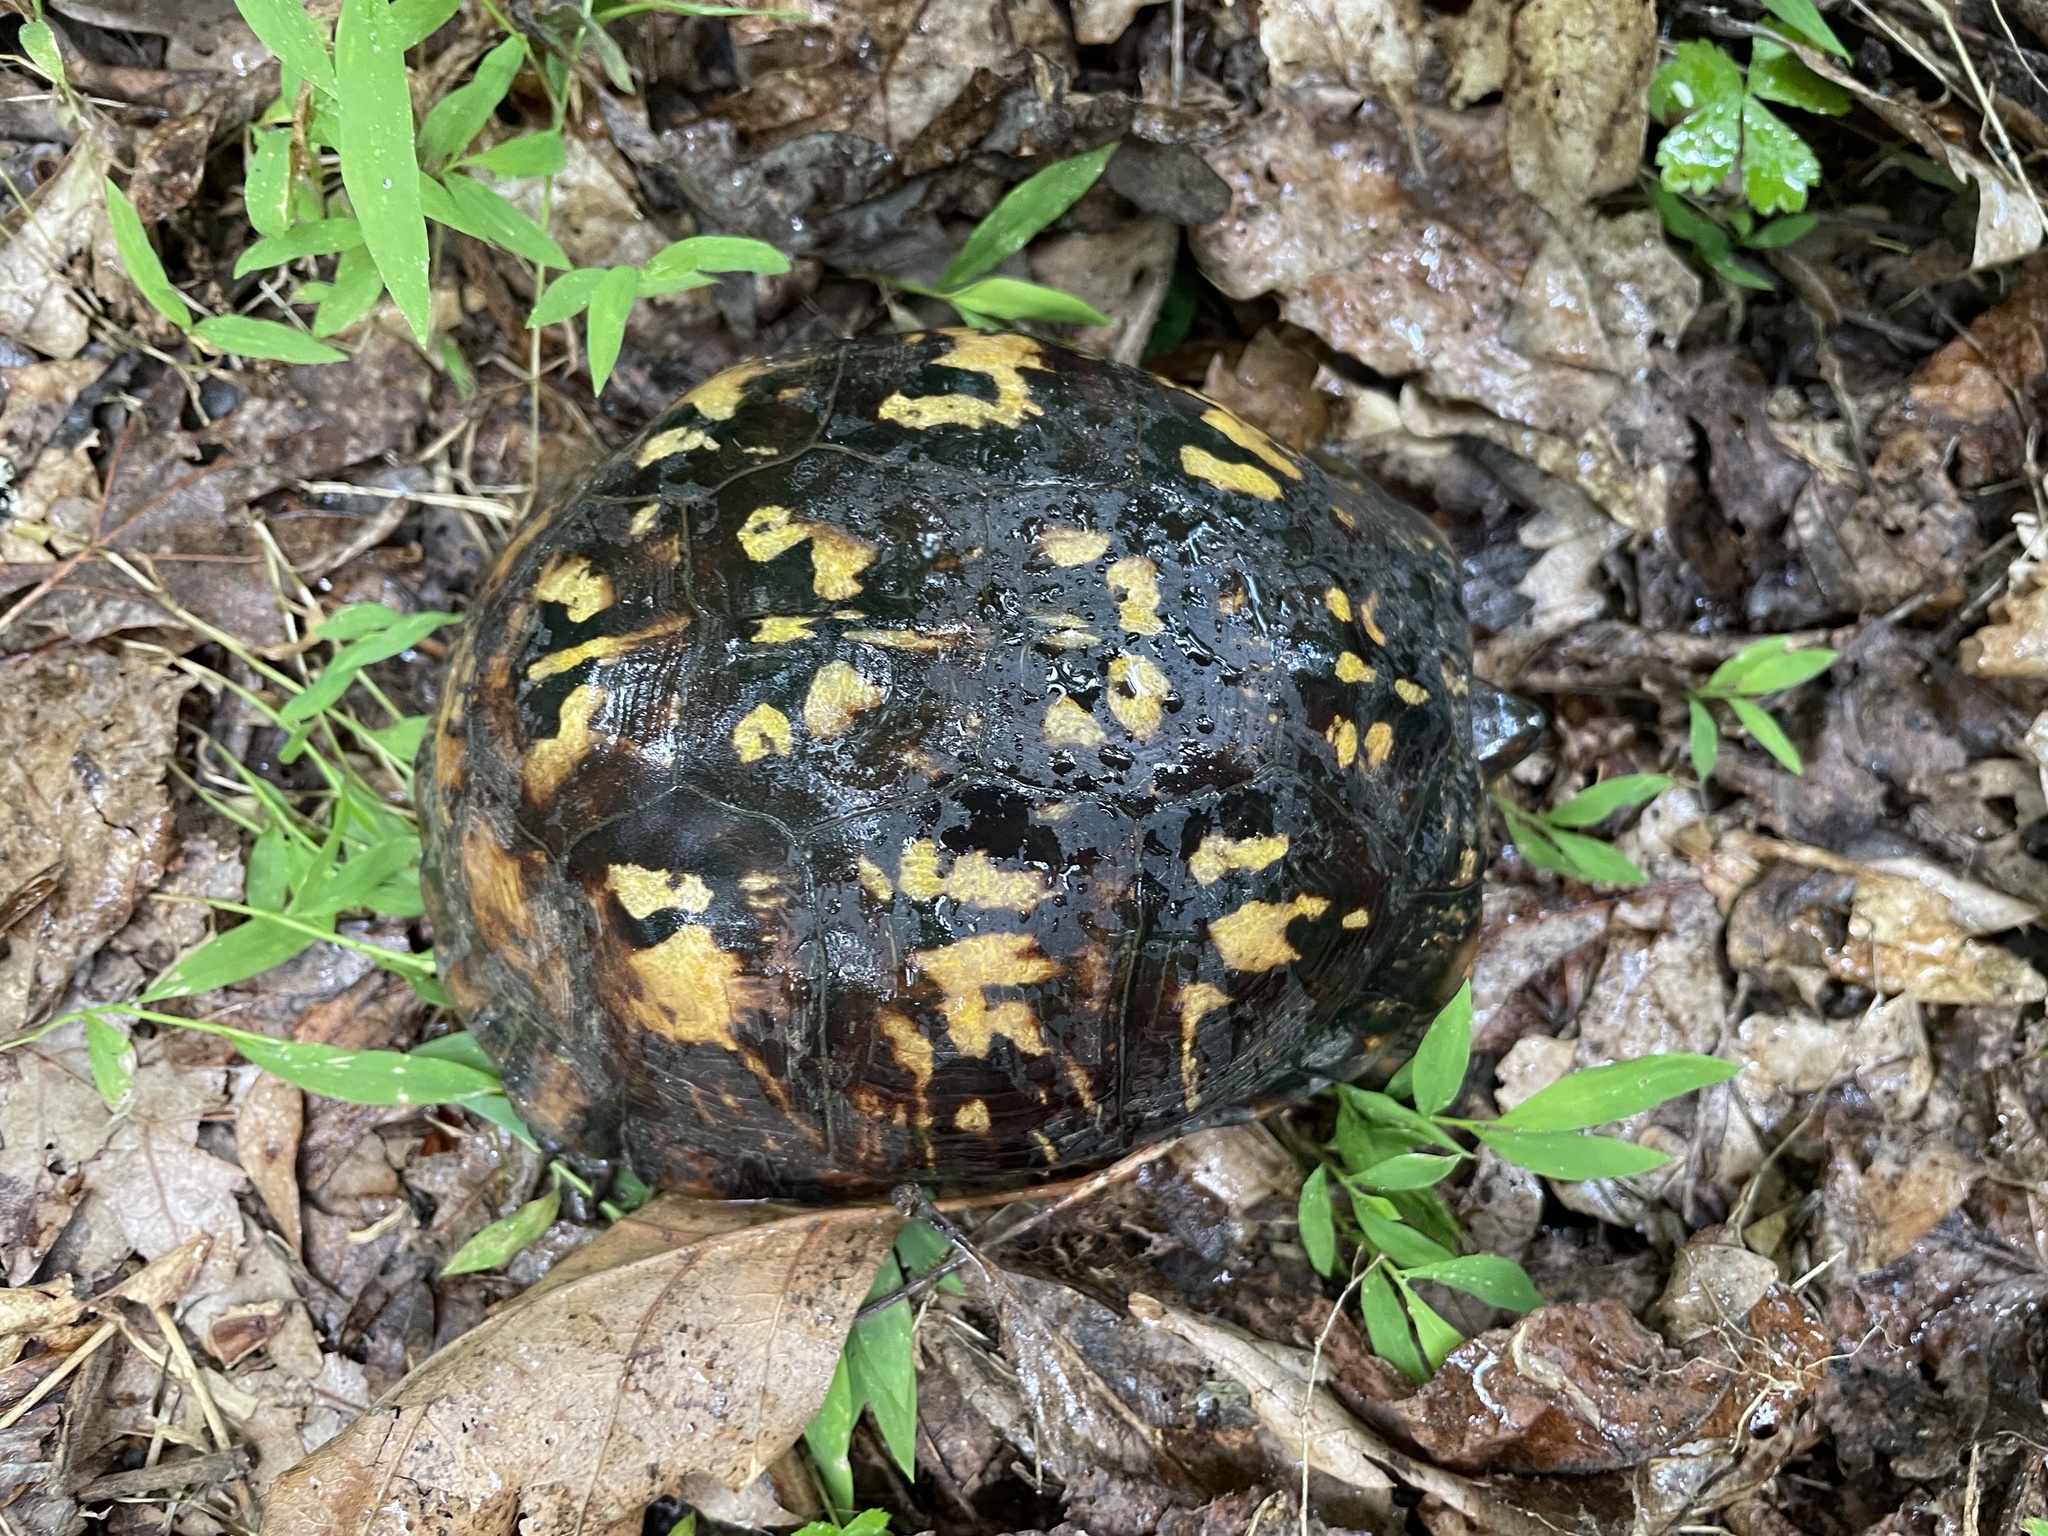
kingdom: Animalia
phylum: Chordata
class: Testudines
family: Emydidae
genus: Terrapene
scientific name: Terrapene carolina
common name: Common box turtle
